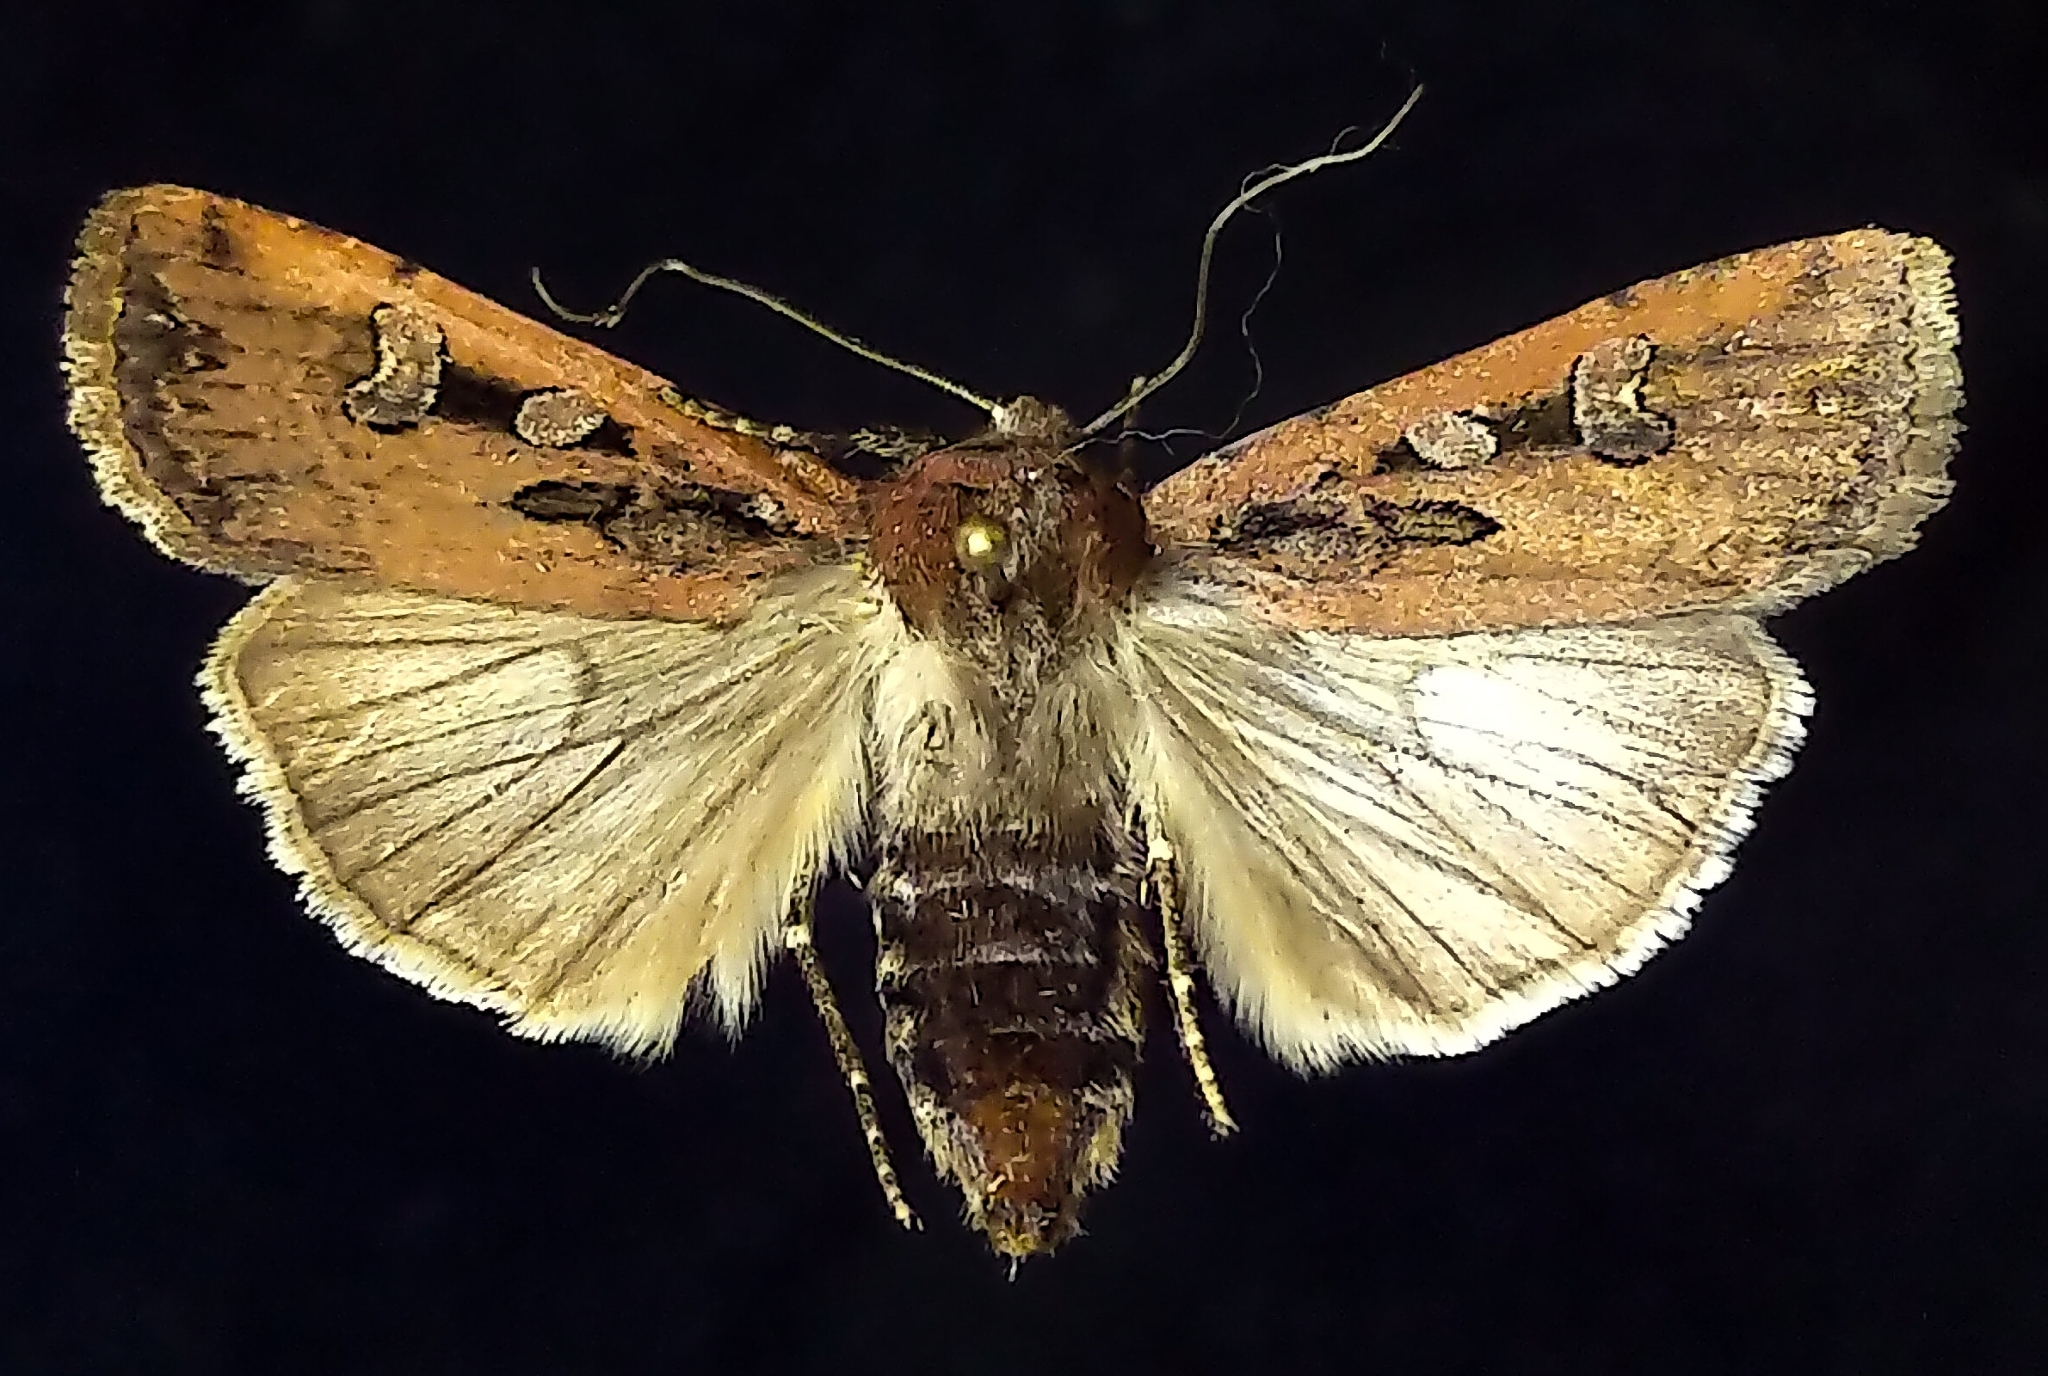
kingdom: Animalia
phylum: Arthropoda
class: Insecta
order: Lepidoptera
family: Noctuidae
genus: Euxoa
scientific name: Euxoa ochrogaster
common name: Red-backed cutworm moth
